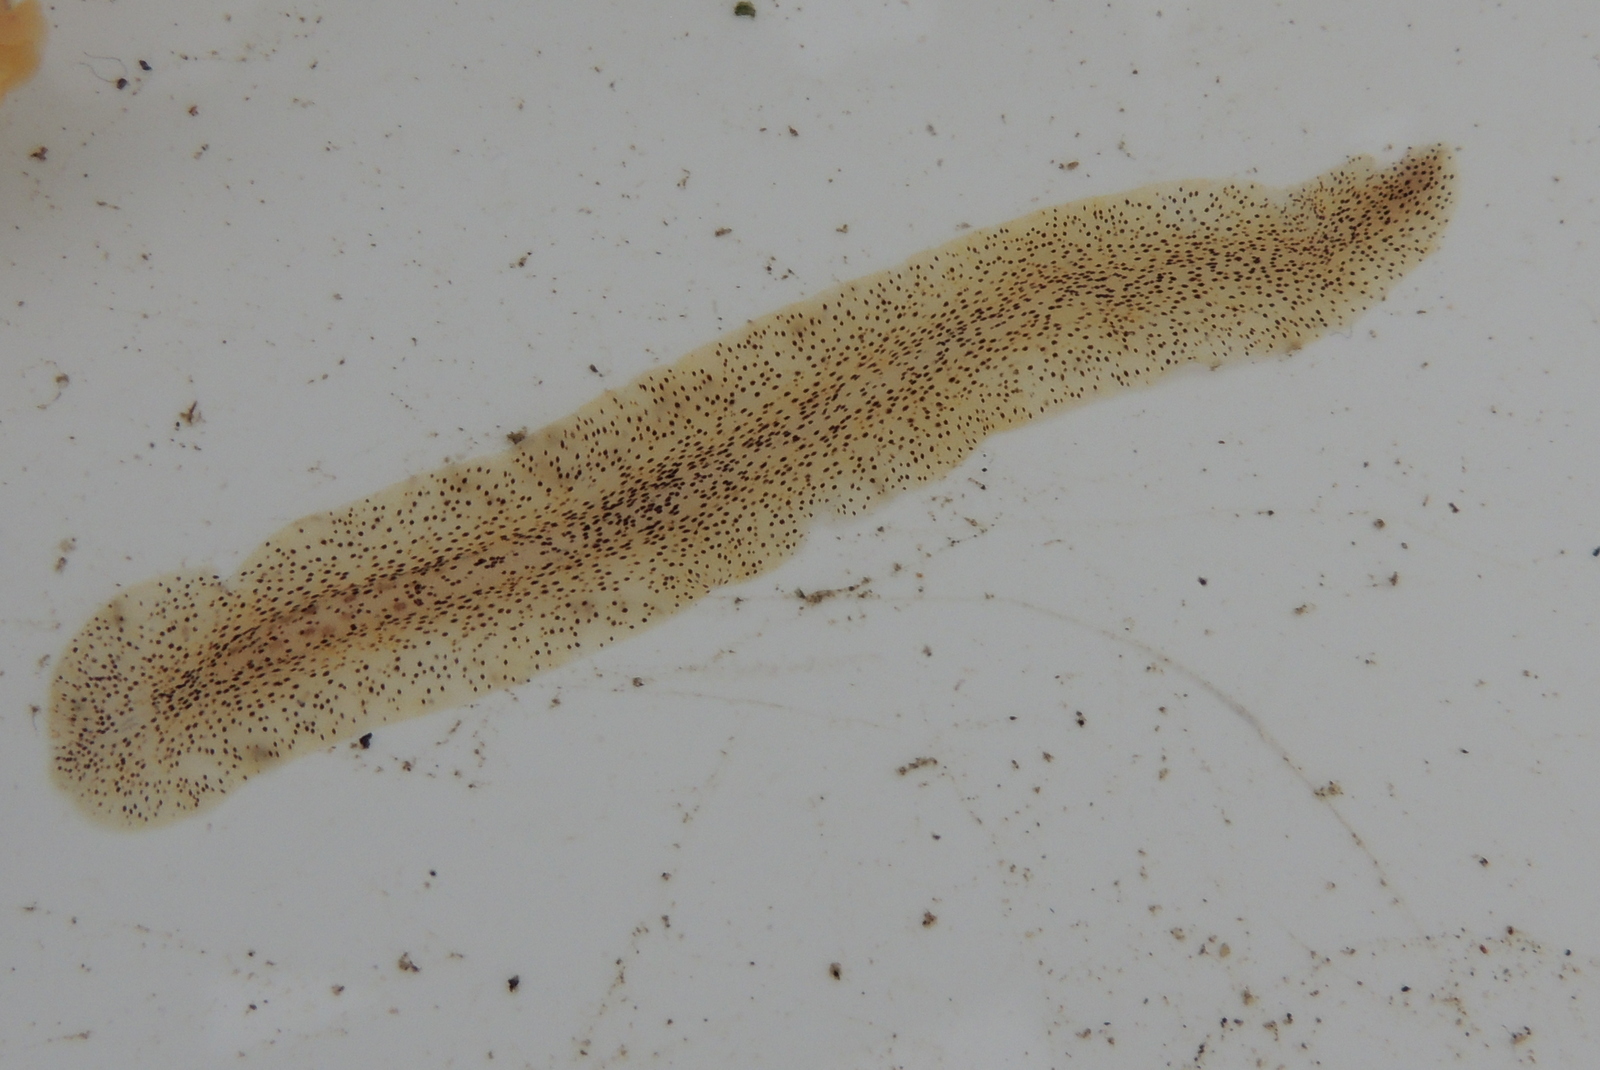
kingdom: Animalia
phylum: Platyhelminthes
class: Turbellaria
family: Prosthiostomidae
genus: Enchiridium
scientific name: Enchiridium punctatum
